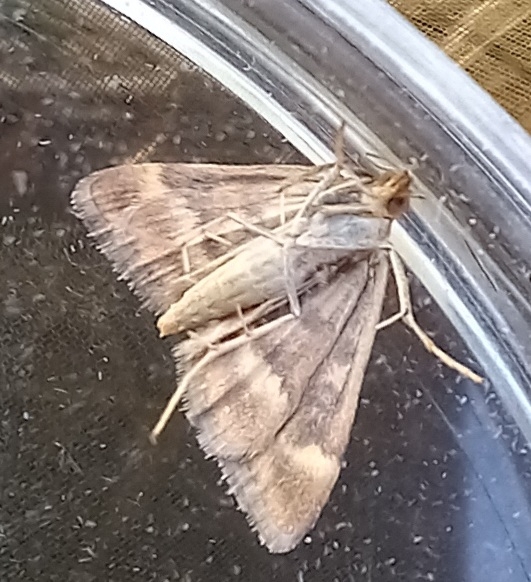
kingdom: Animalia
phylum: Arthropoda
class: Insecta
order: Lepidoptera
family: Crambidae
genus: Pyrausta
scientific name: Pyrausta despicata
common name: Straw-barred pearl
